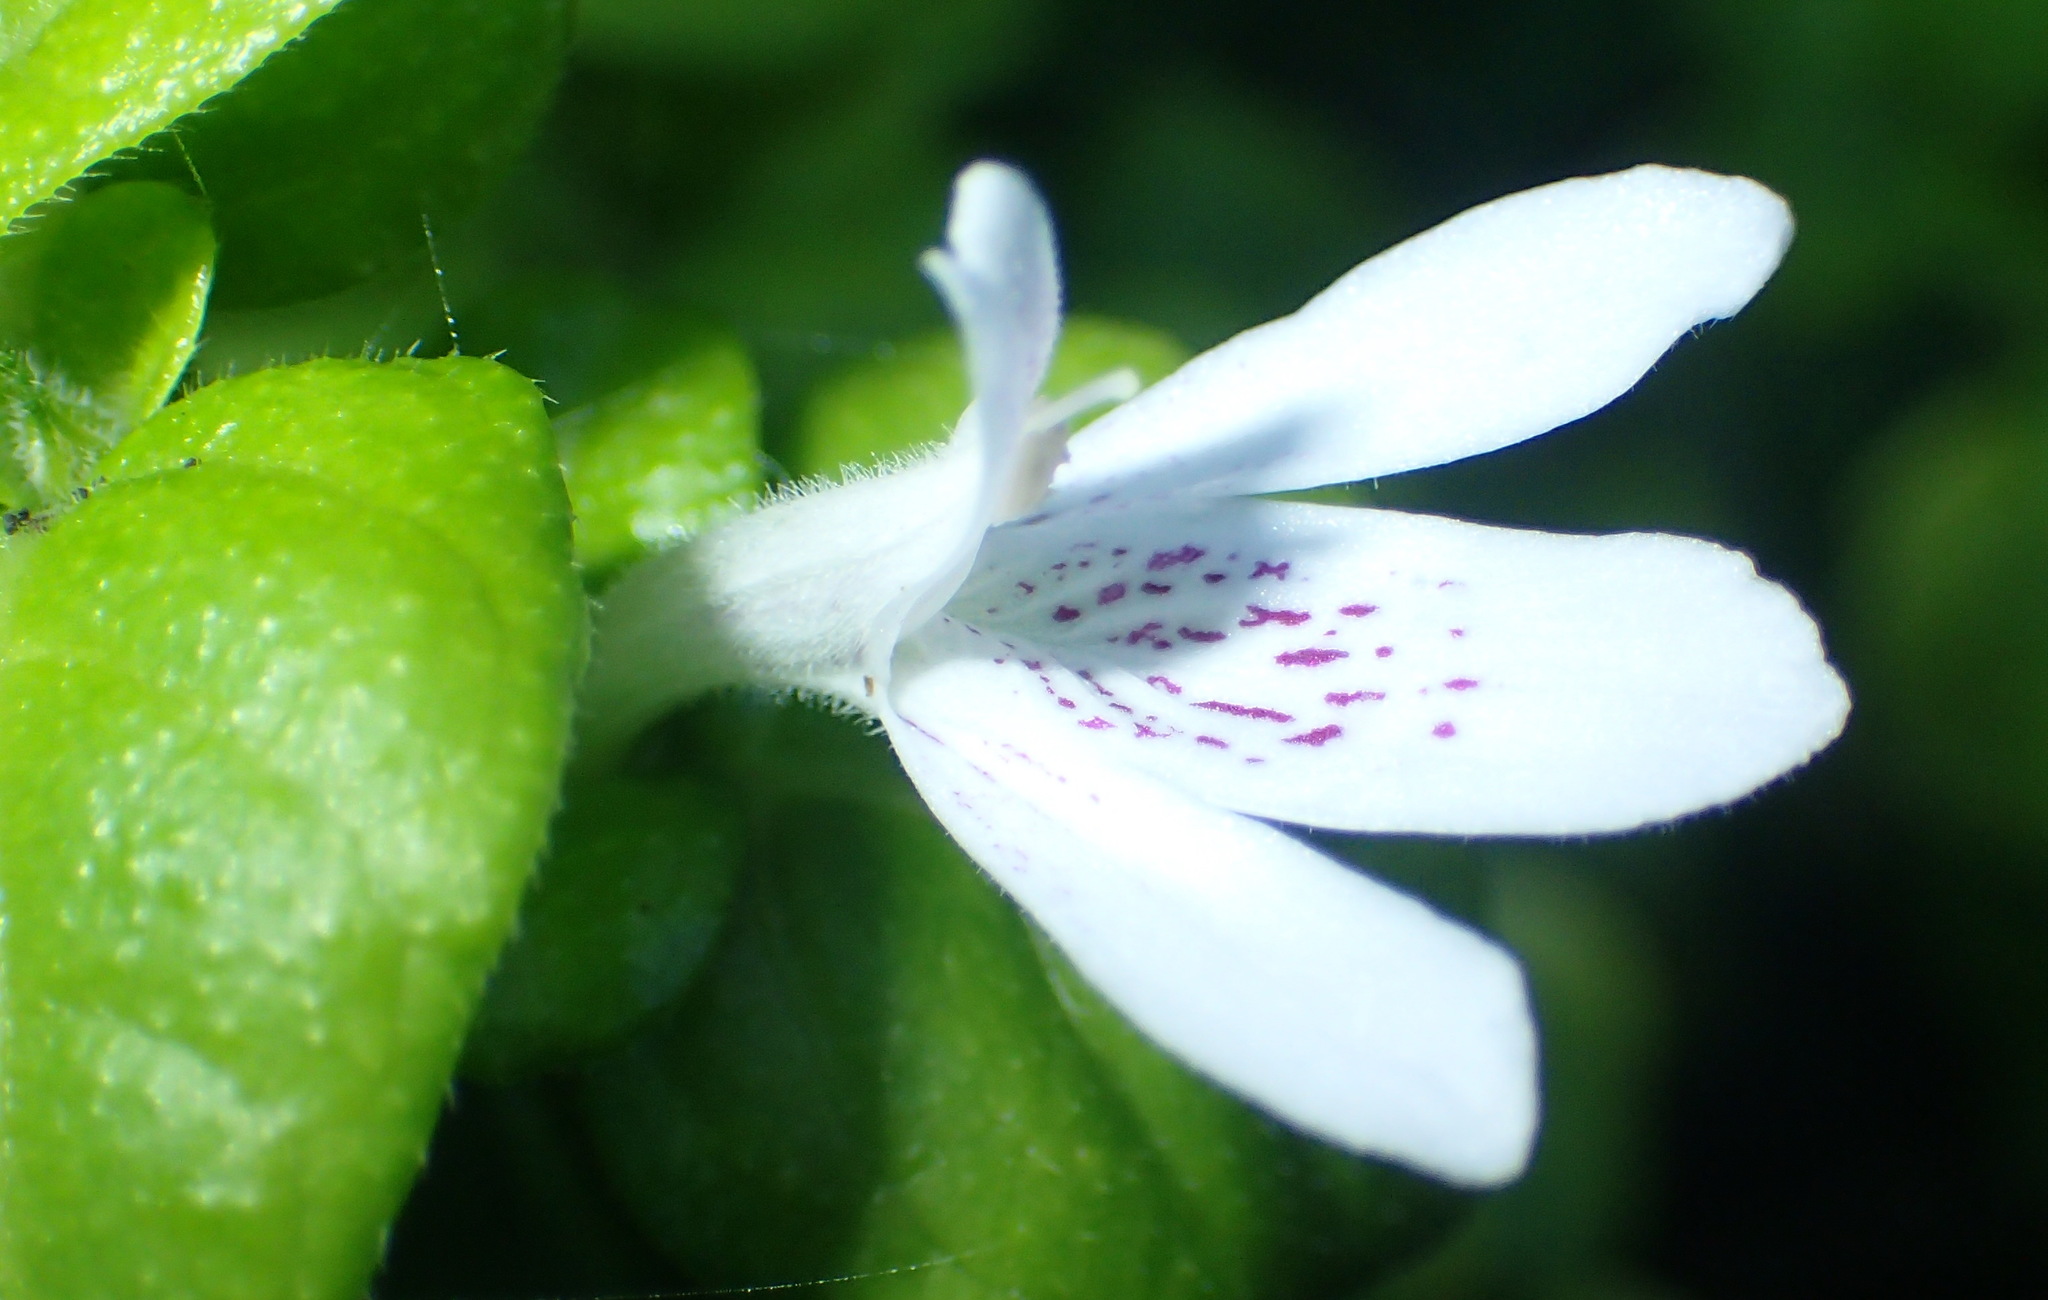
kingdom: Plantae
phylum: Tracheophyta
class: Magnoliopsida
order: Lamiales
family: Acanthaceae
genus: Justicia
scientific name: Justicia tubulosa
